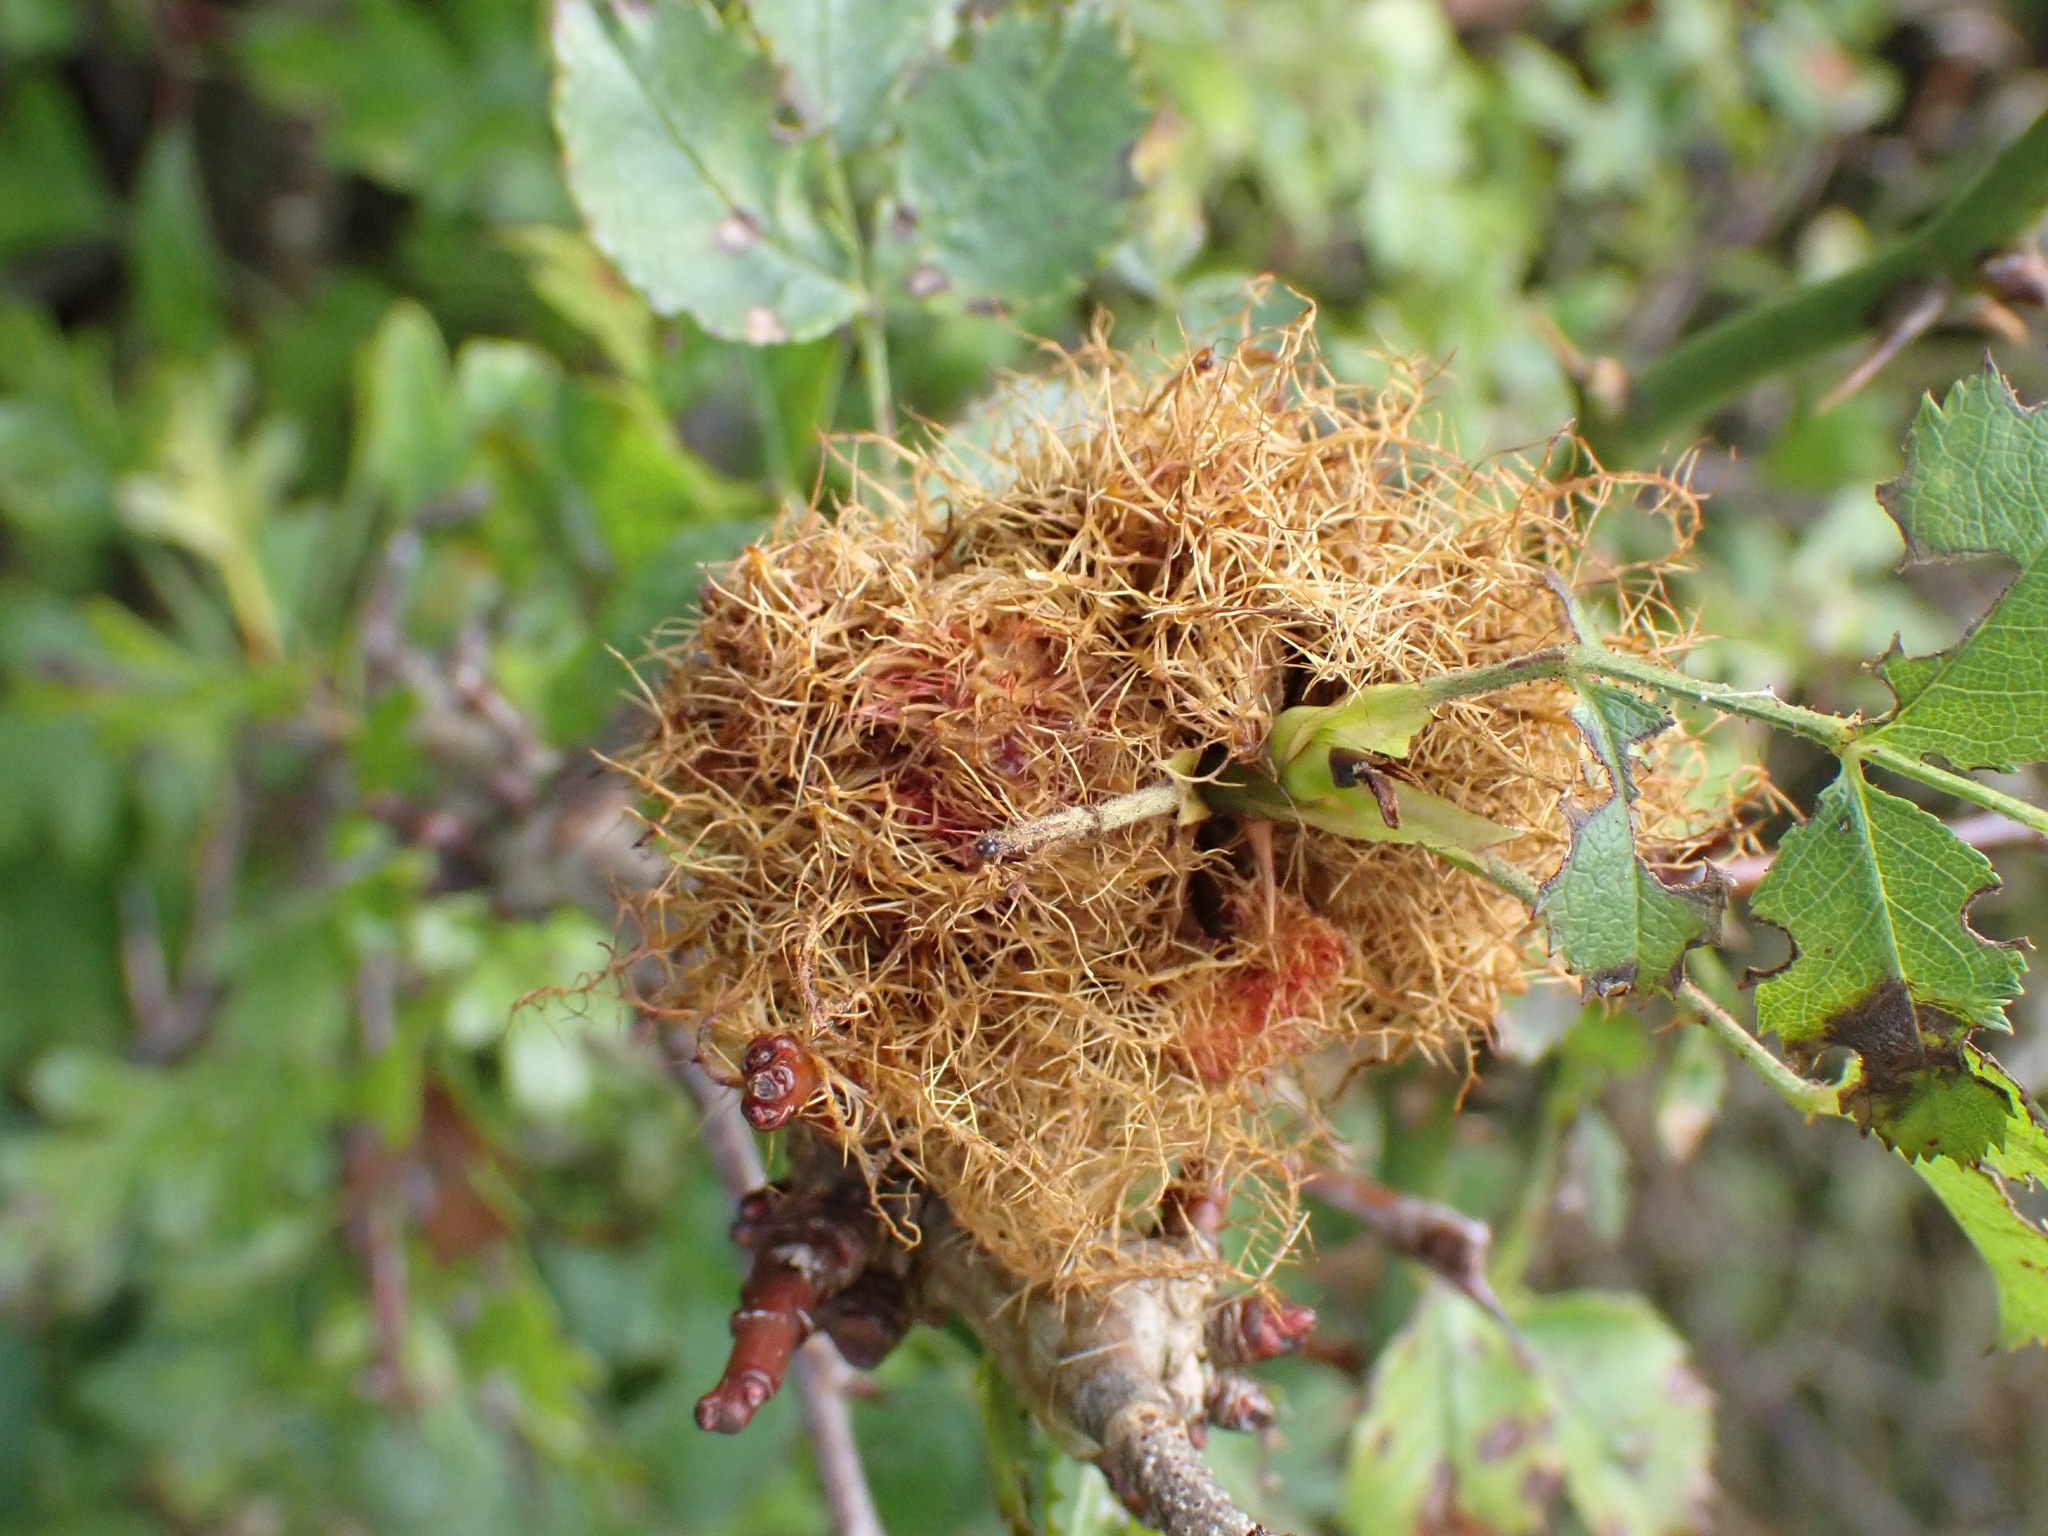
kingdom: Animalia
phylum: Arthropoda
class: Insecta
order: Hymenoptera
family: Cynipidae
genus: Diplolepis
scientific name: Diplolepis rosae
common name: Bedeguar gall
